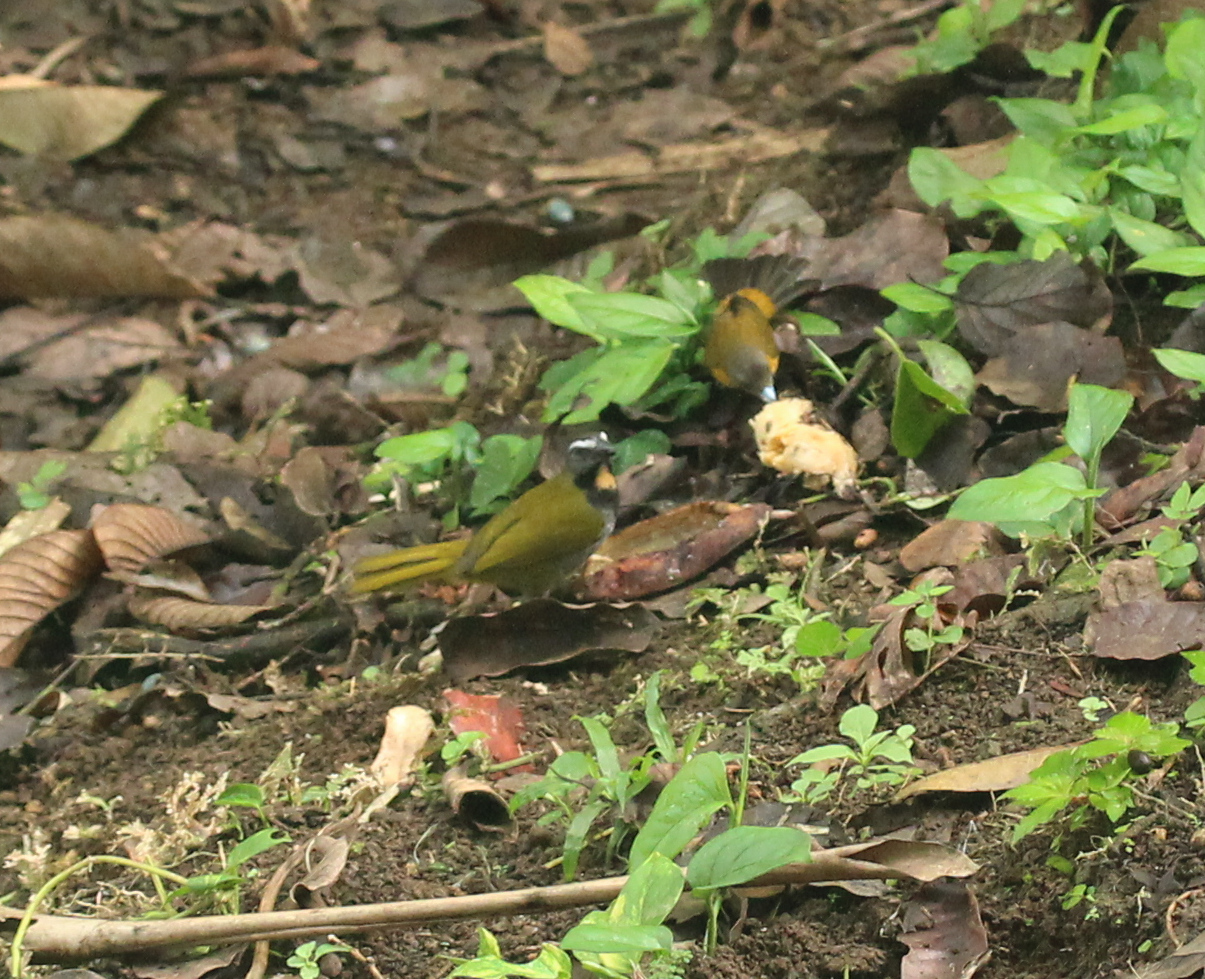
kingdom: Animalia
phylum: Chordata
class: Aves
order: Passeriformes
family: Thraupidae
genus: Saltator
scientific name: Saltator maximus
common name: Buff-throated saltator
